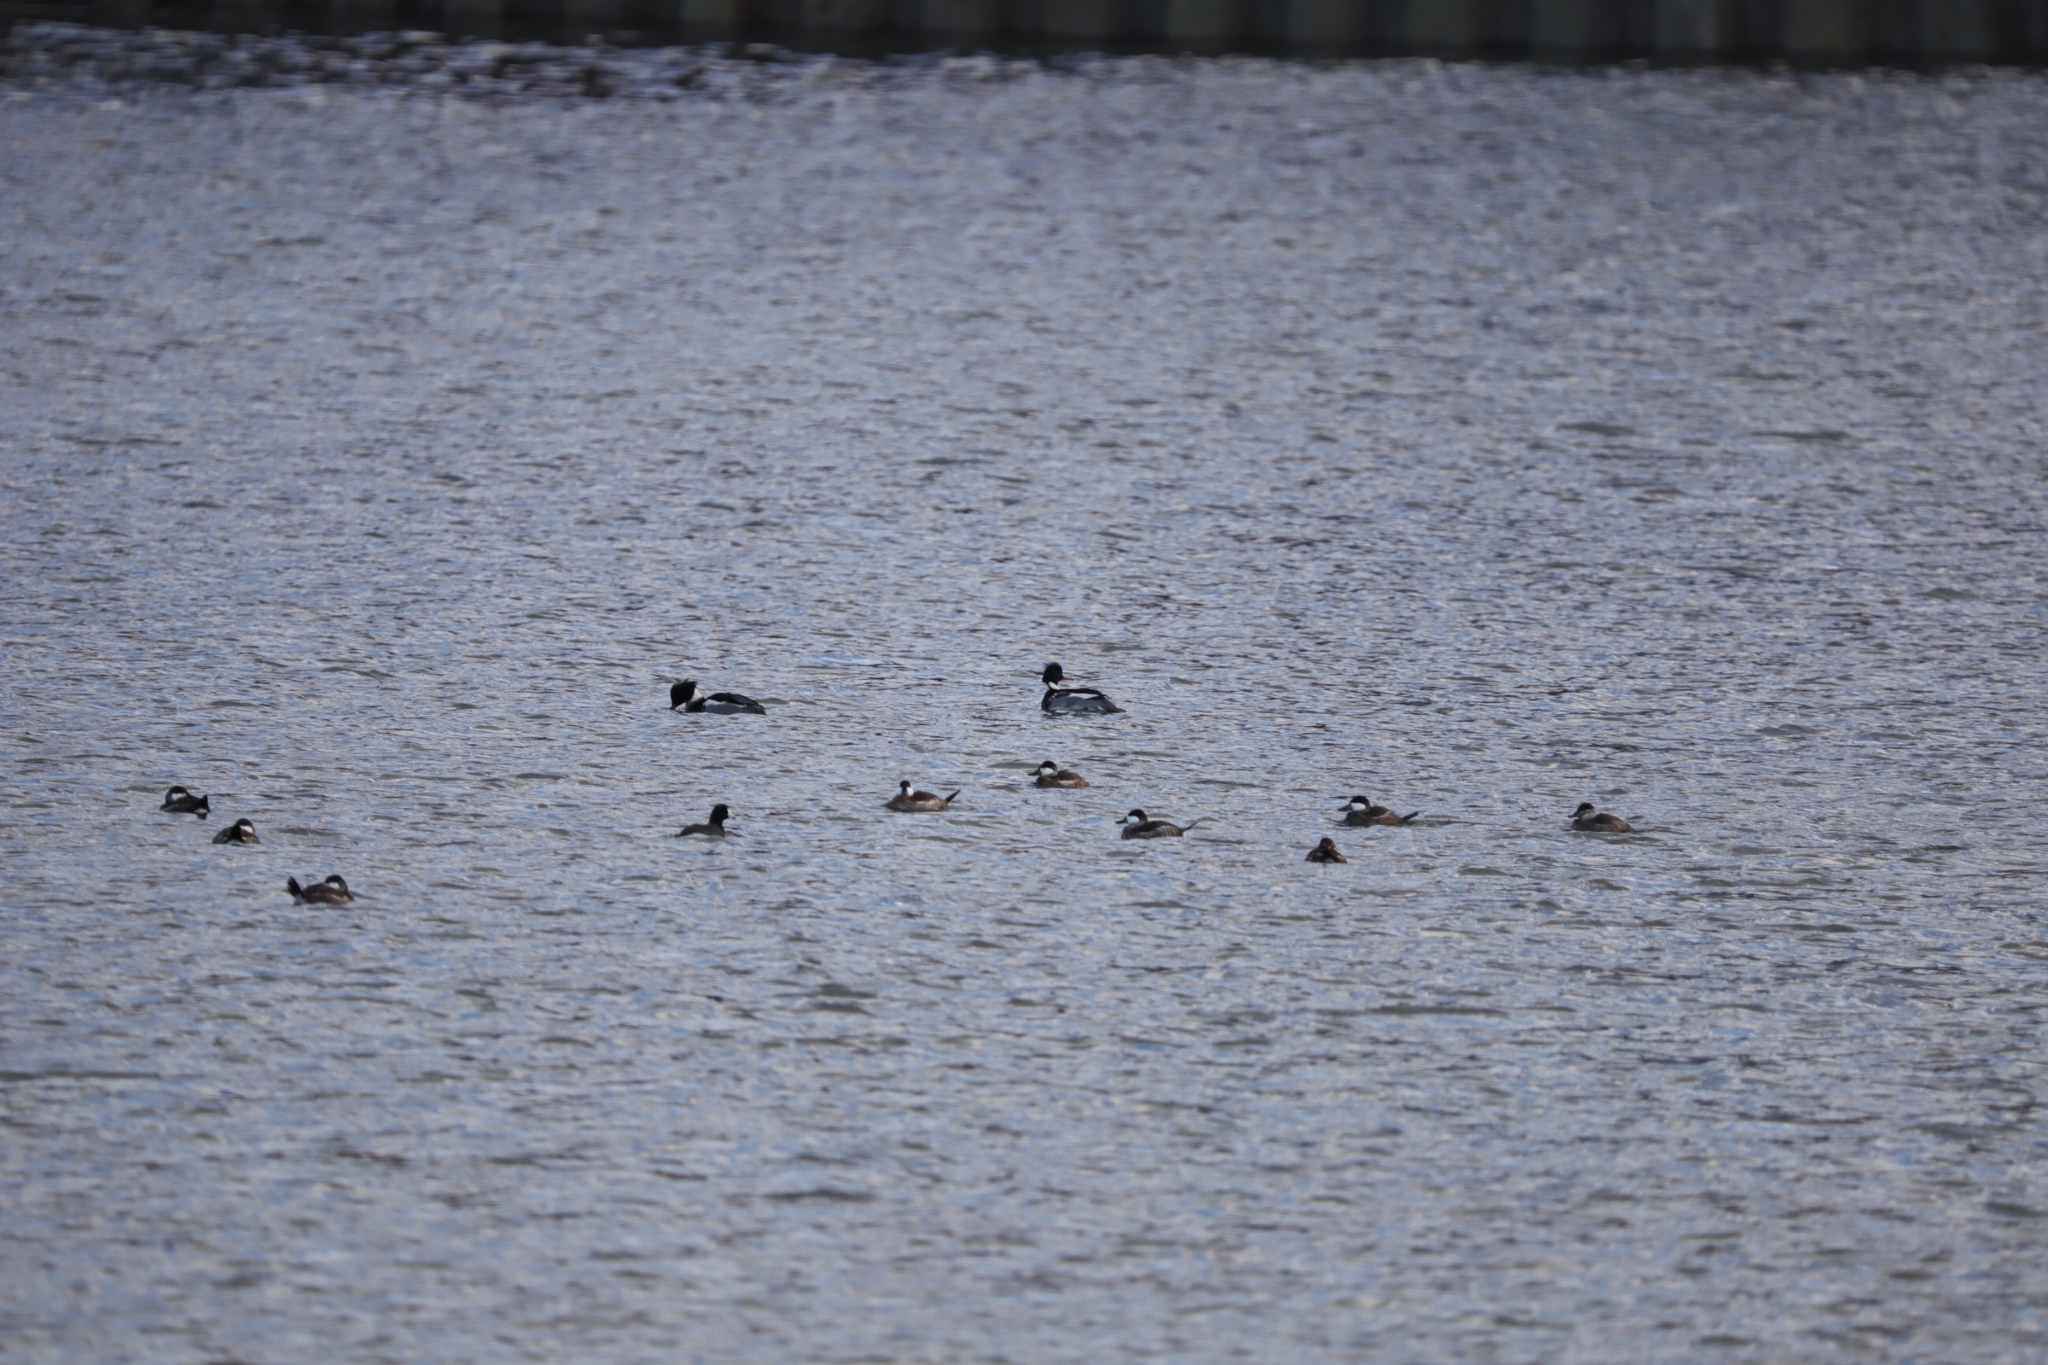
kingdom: Animalia
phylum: Chordata
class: Aves
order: Anseriformes
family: Anatidae
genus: Mergus
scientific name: Mergus serrator
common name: Red-breasted merganser
